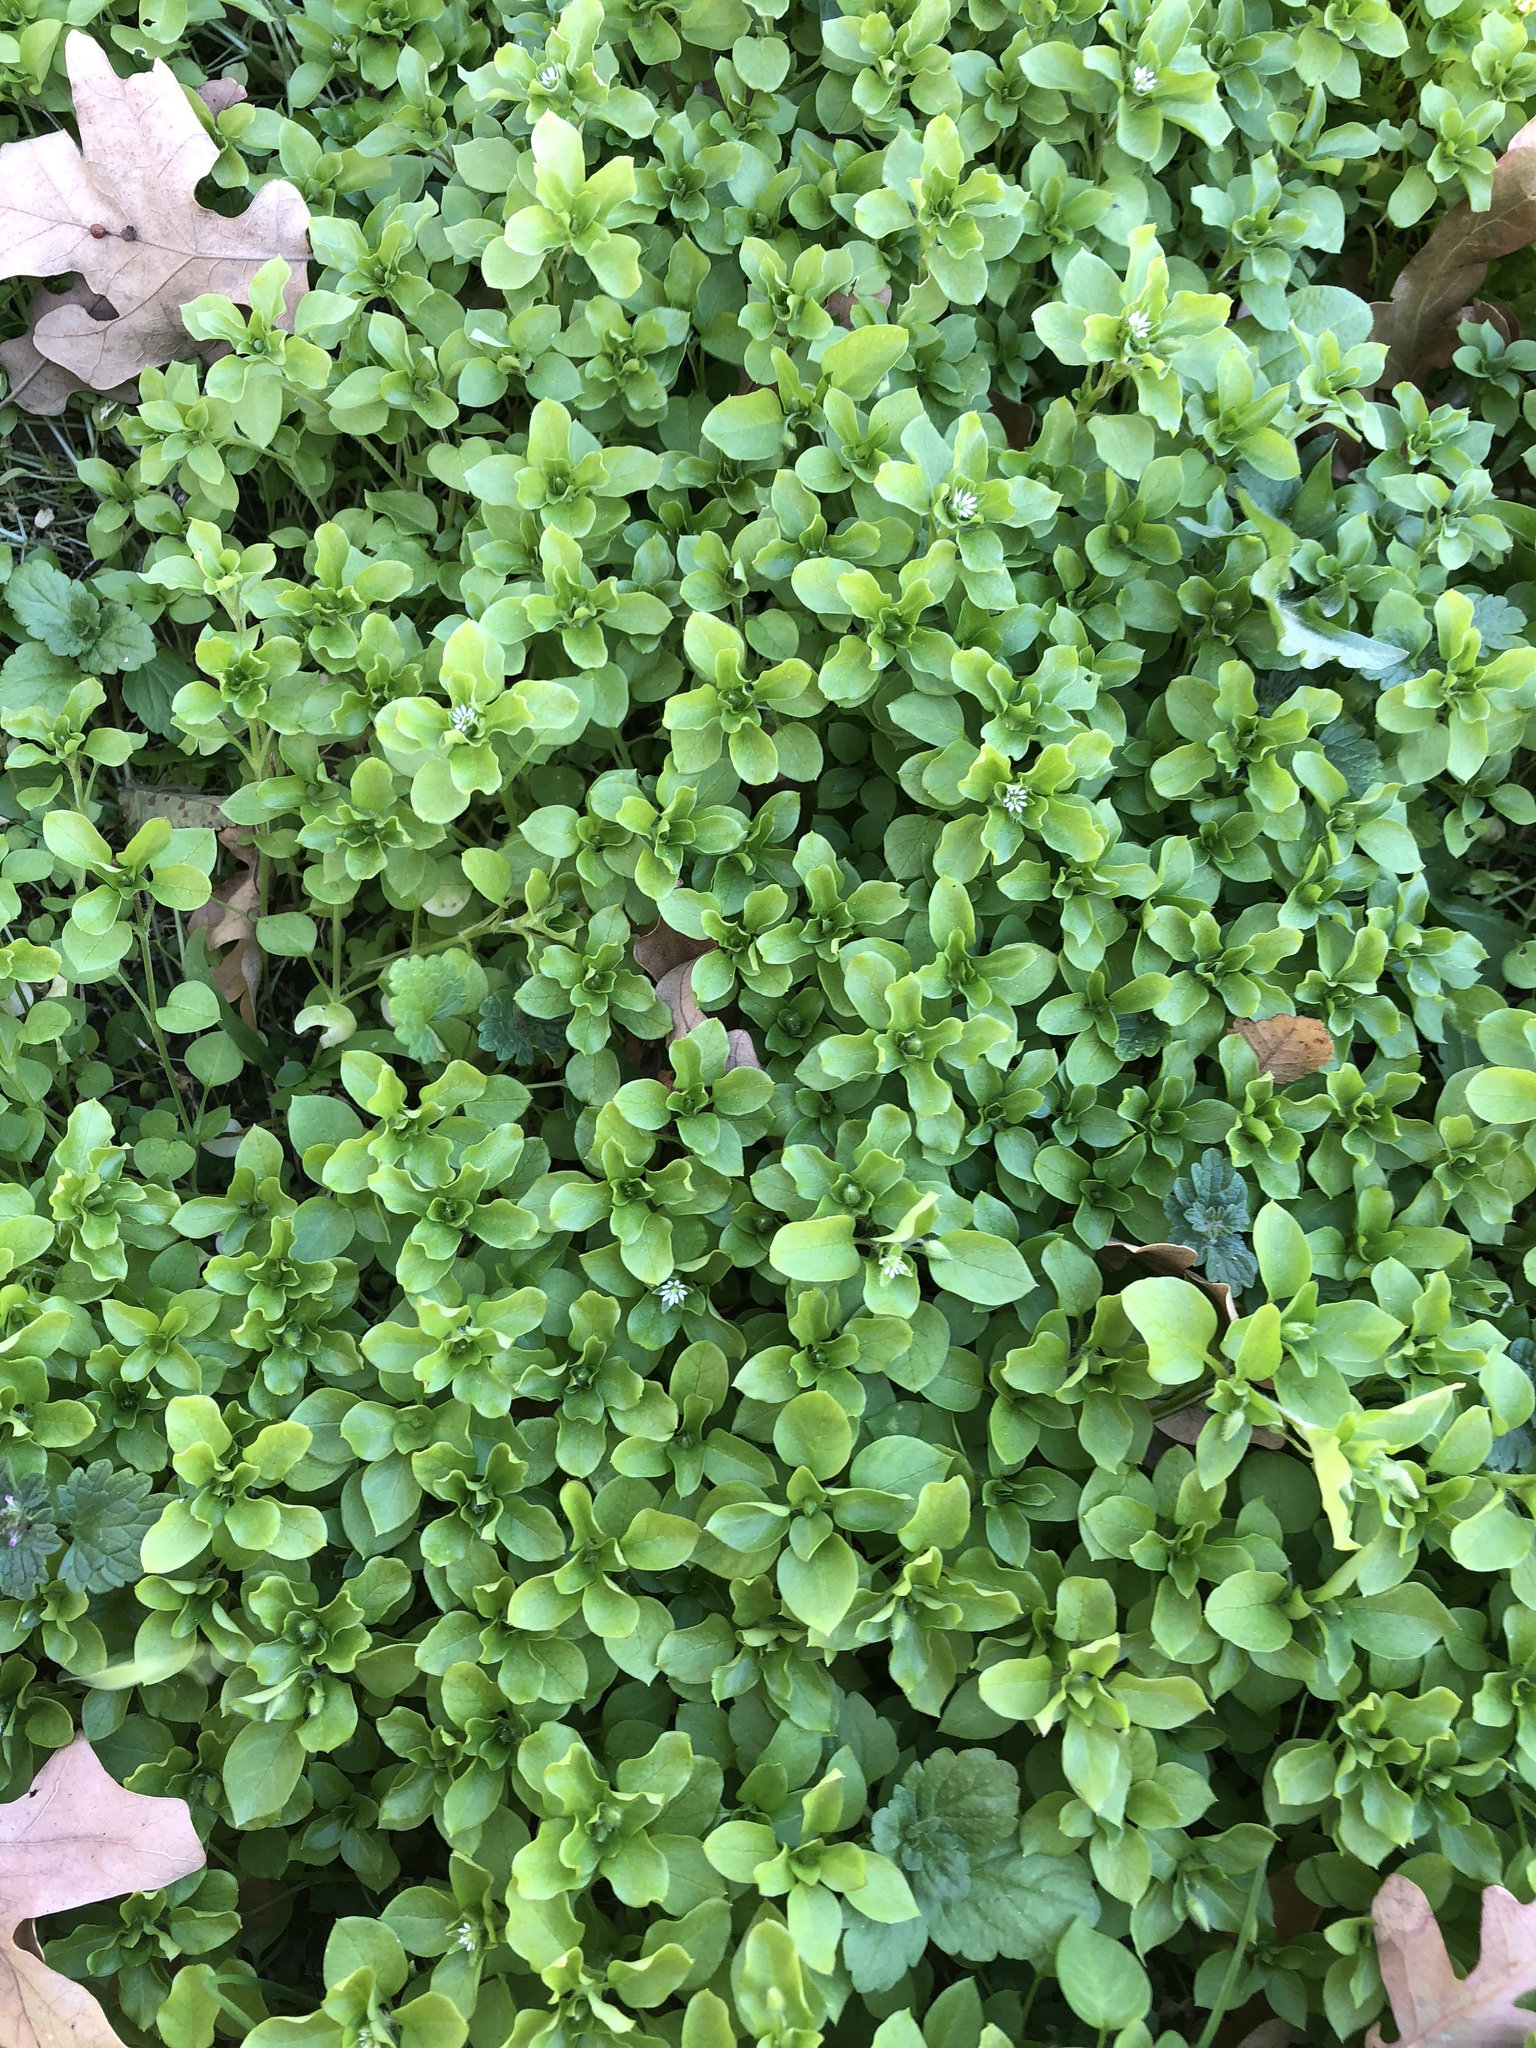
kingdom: Plantae
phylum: Tracheophyta
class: Magnoliopsida
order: Caryophyllales
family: Caryophyllaceae
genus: Stellaria
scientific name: Stellaria media
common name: Common chickweed
